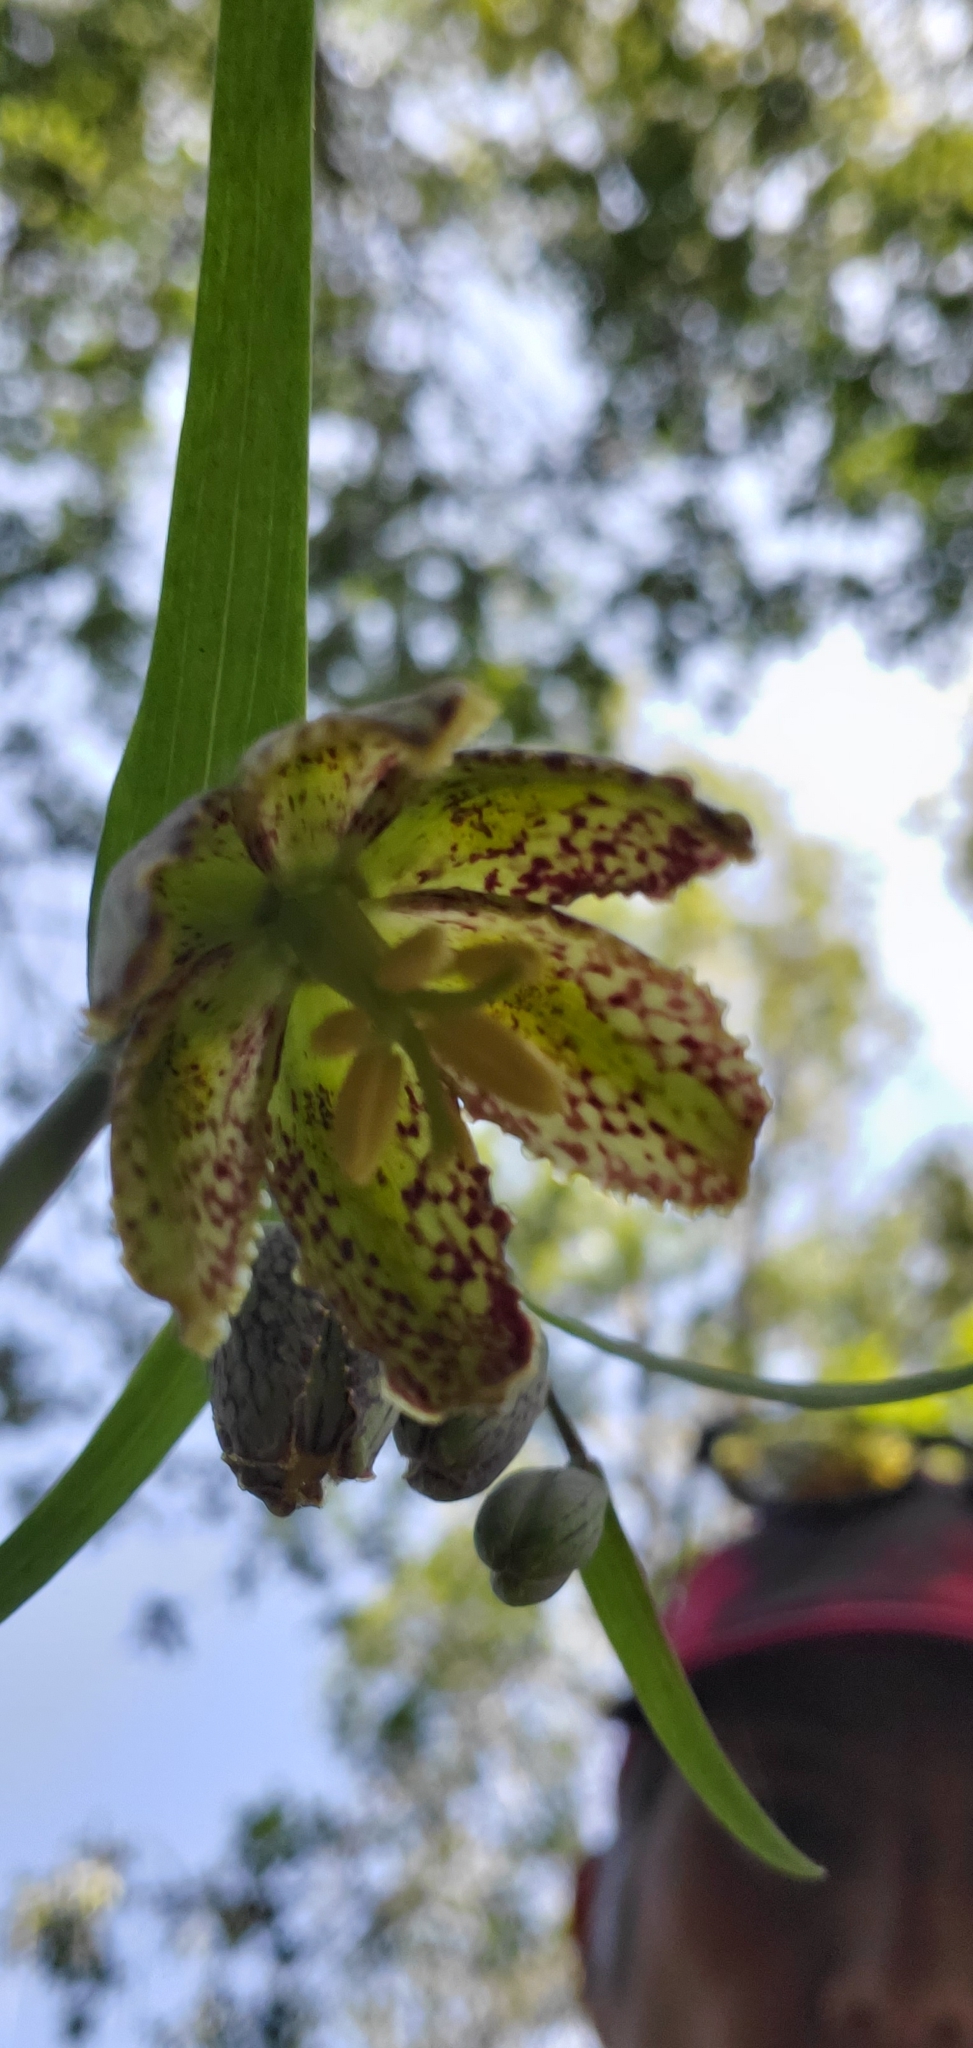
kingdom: Plantae
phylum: Tracheophyta
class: Liliopsida
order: Liliales
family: Liliaceae
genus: Fritillaria
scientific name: Fritillaria affinis
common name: Ojai fritillary
